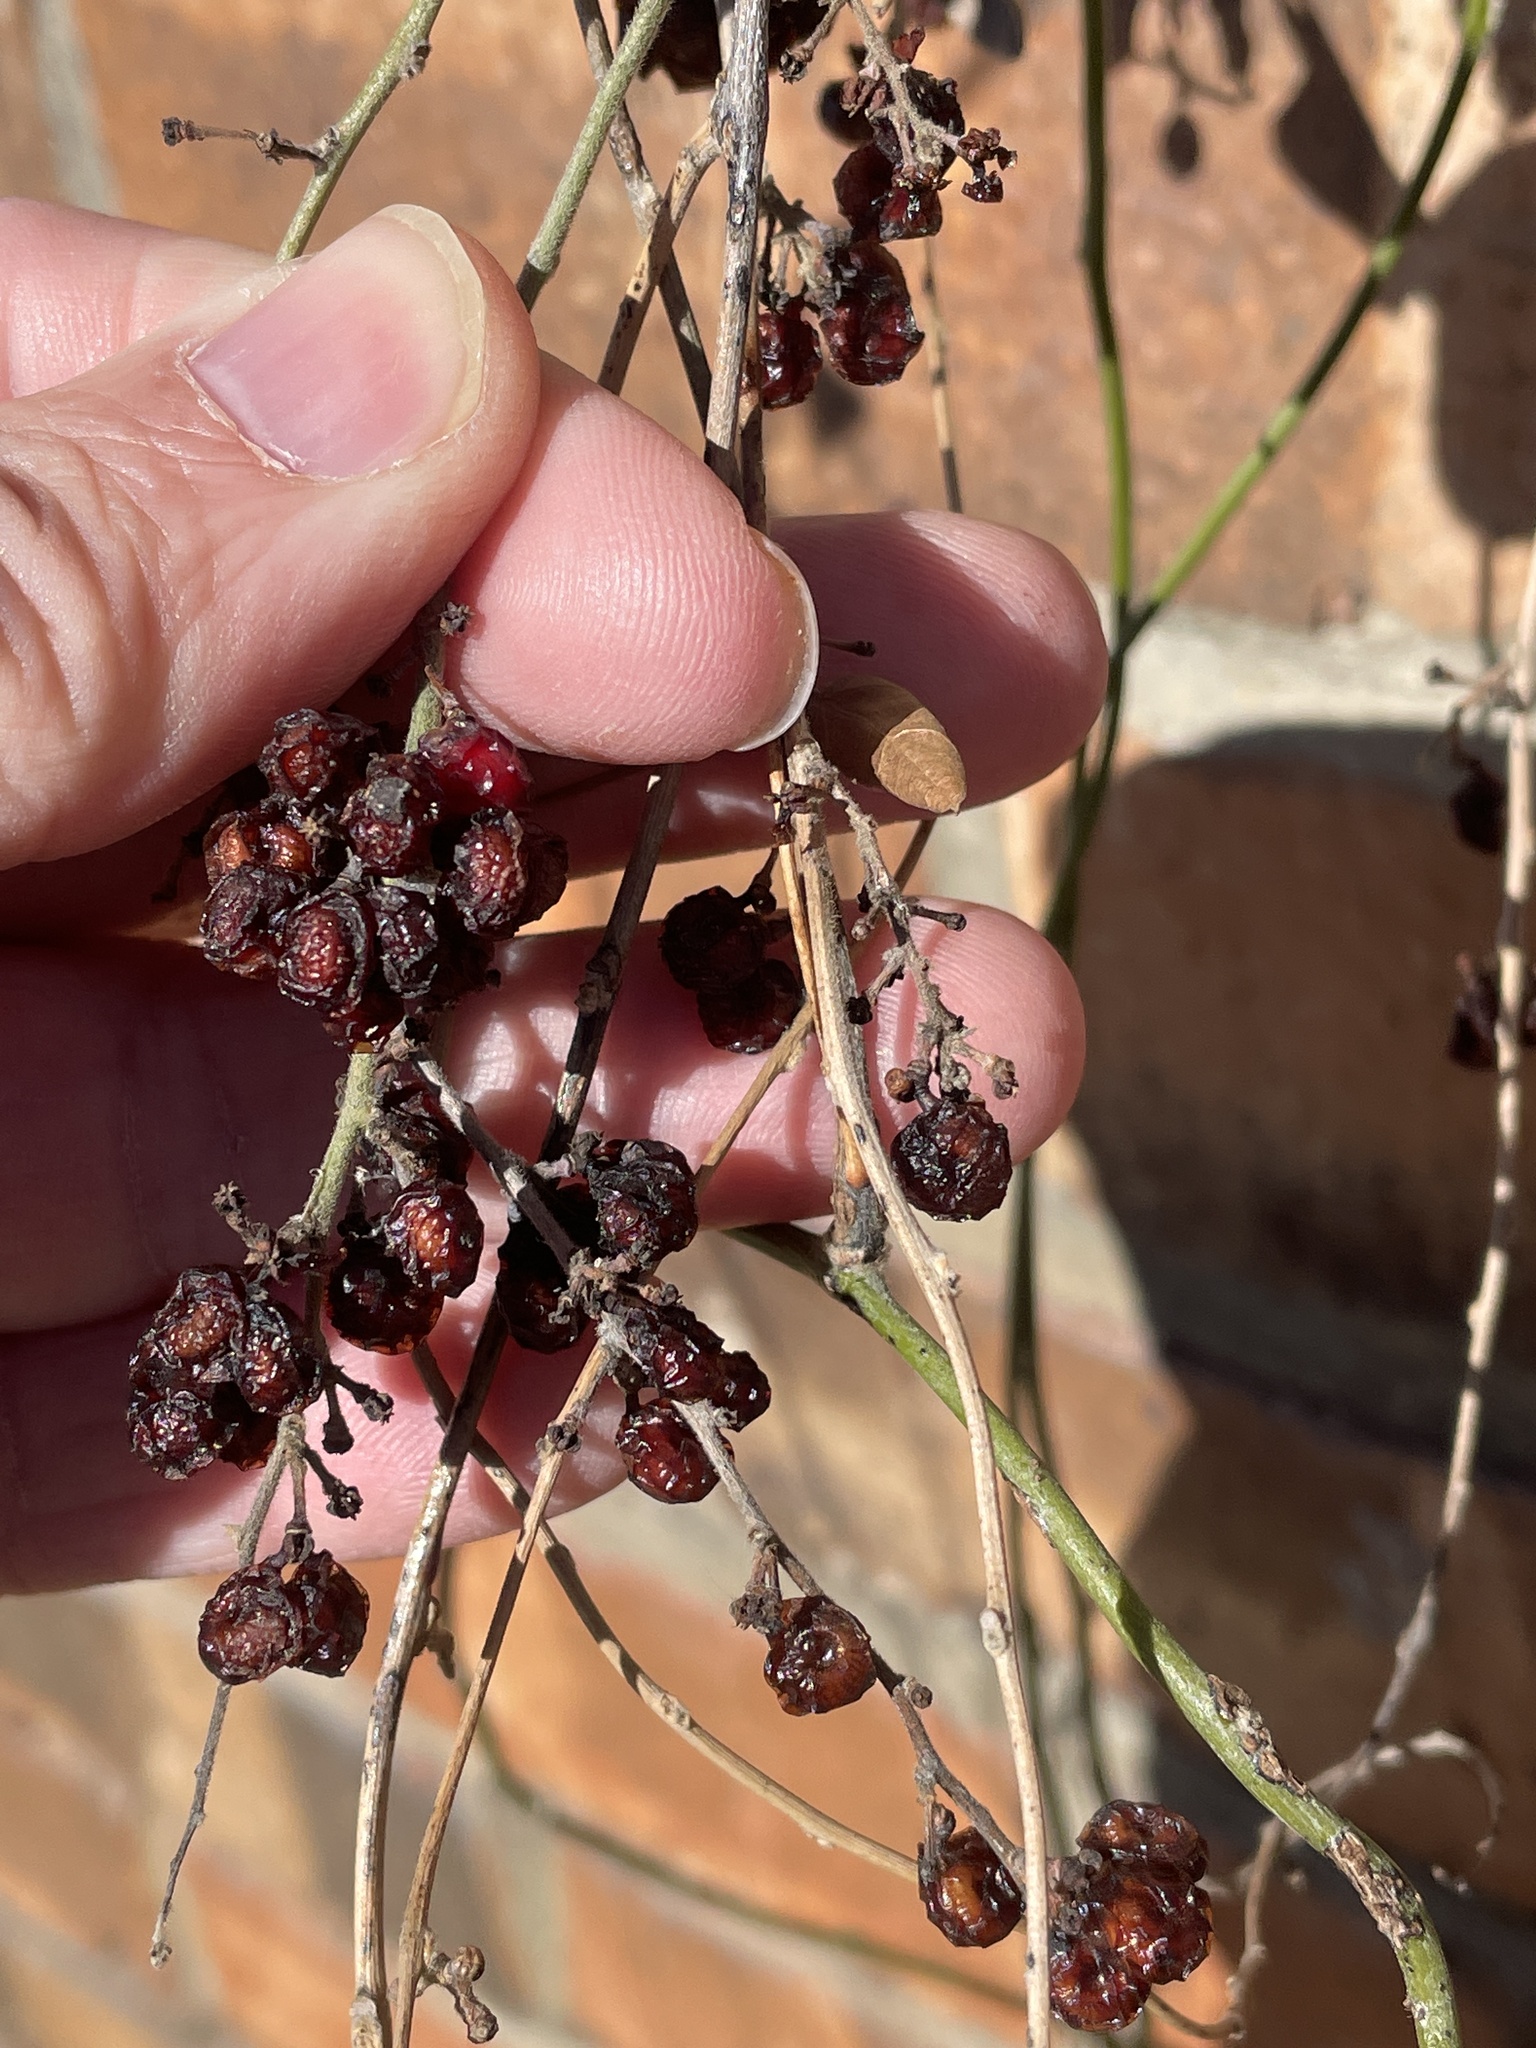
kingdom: Plantae
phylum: Tracheophyta
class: Magnoliopsida
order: Ranunculales
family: Menispermaceae
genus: Cocculus
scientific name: Cocculus carolinus
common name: Carolina moonseed
